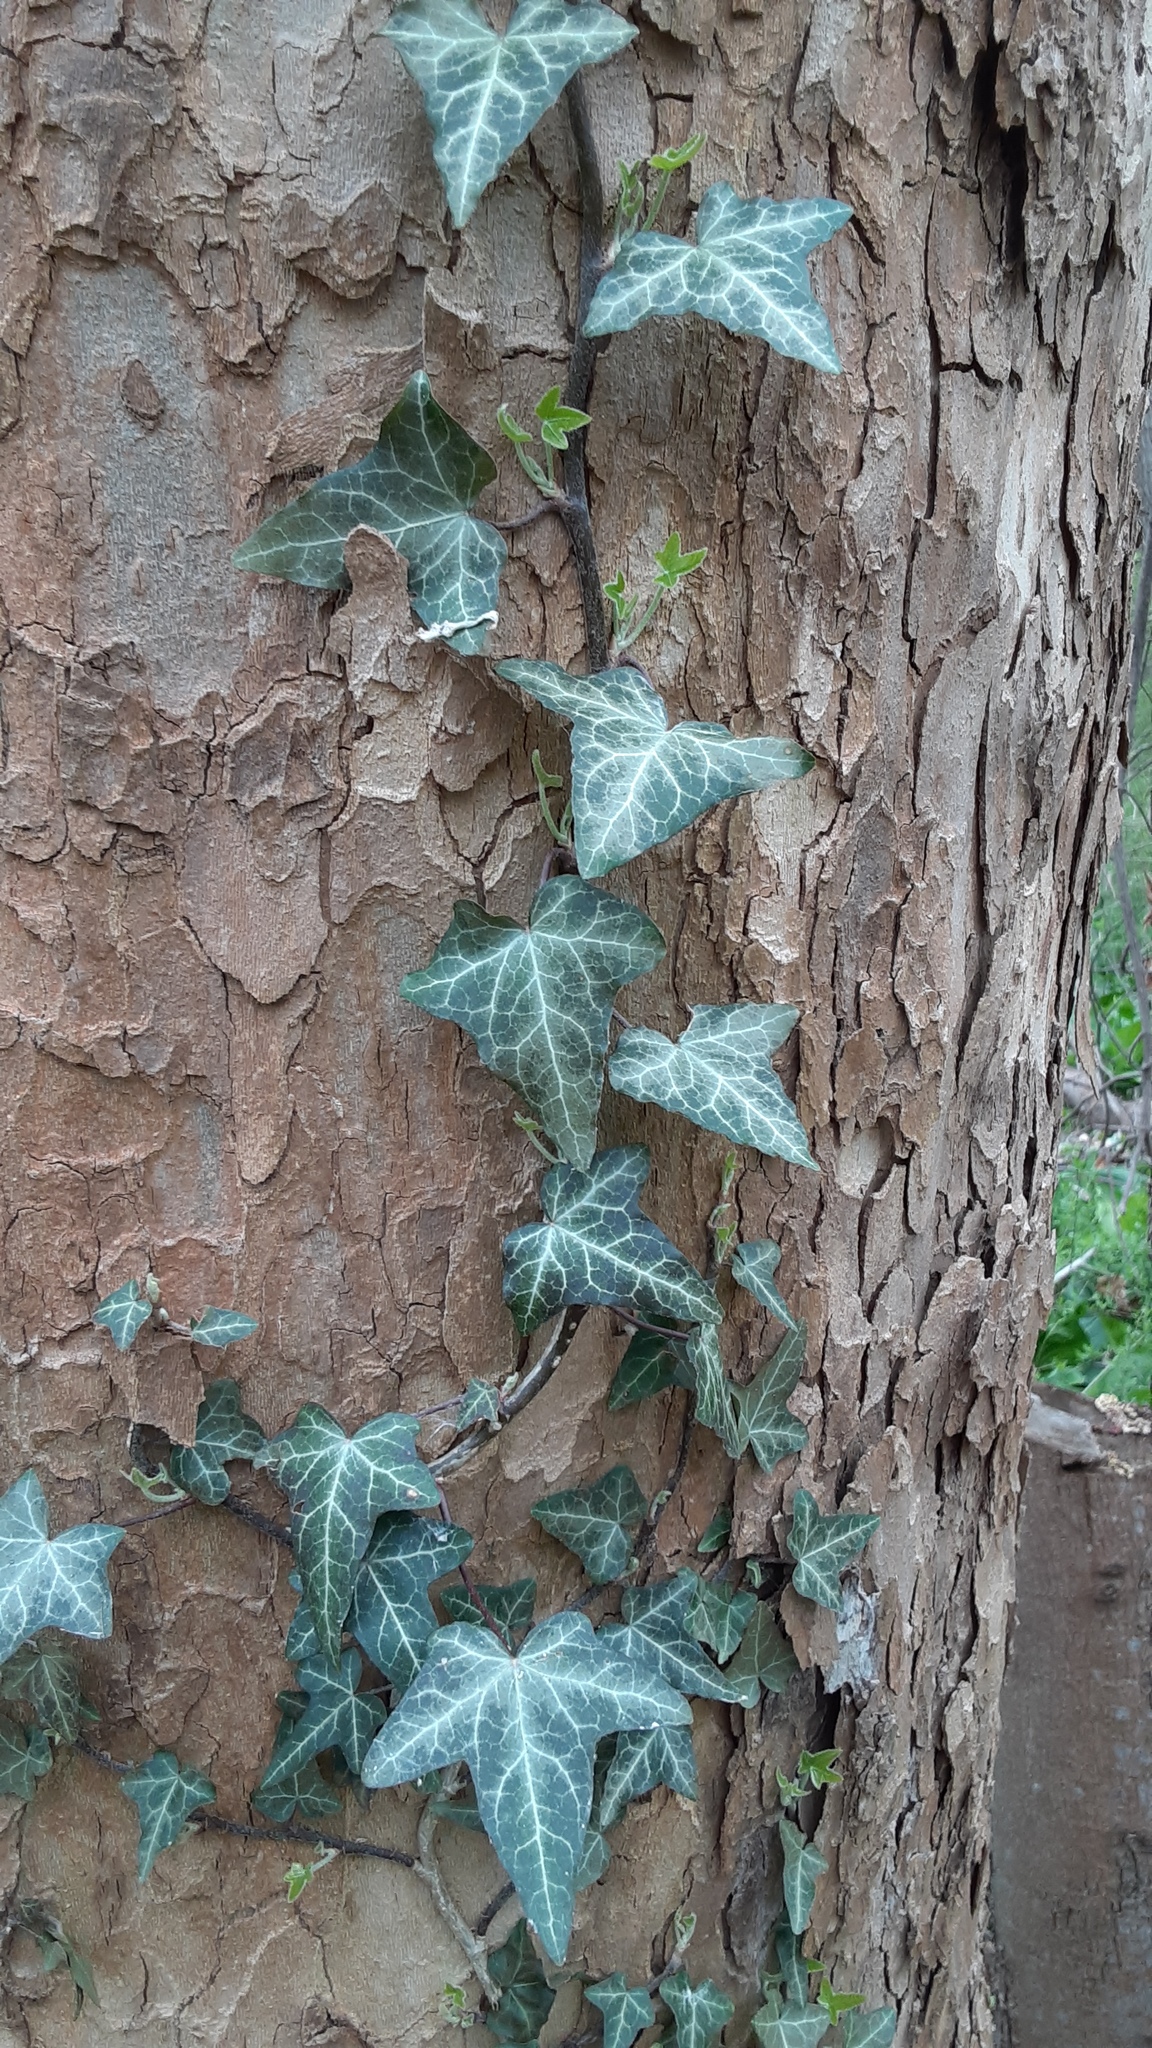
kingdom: Plantae
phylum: Tracheophyta
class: Magnoliopsida
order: Apiales
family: Araliaceae
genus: Hedera
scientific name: Hedera helix
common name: Ivy
